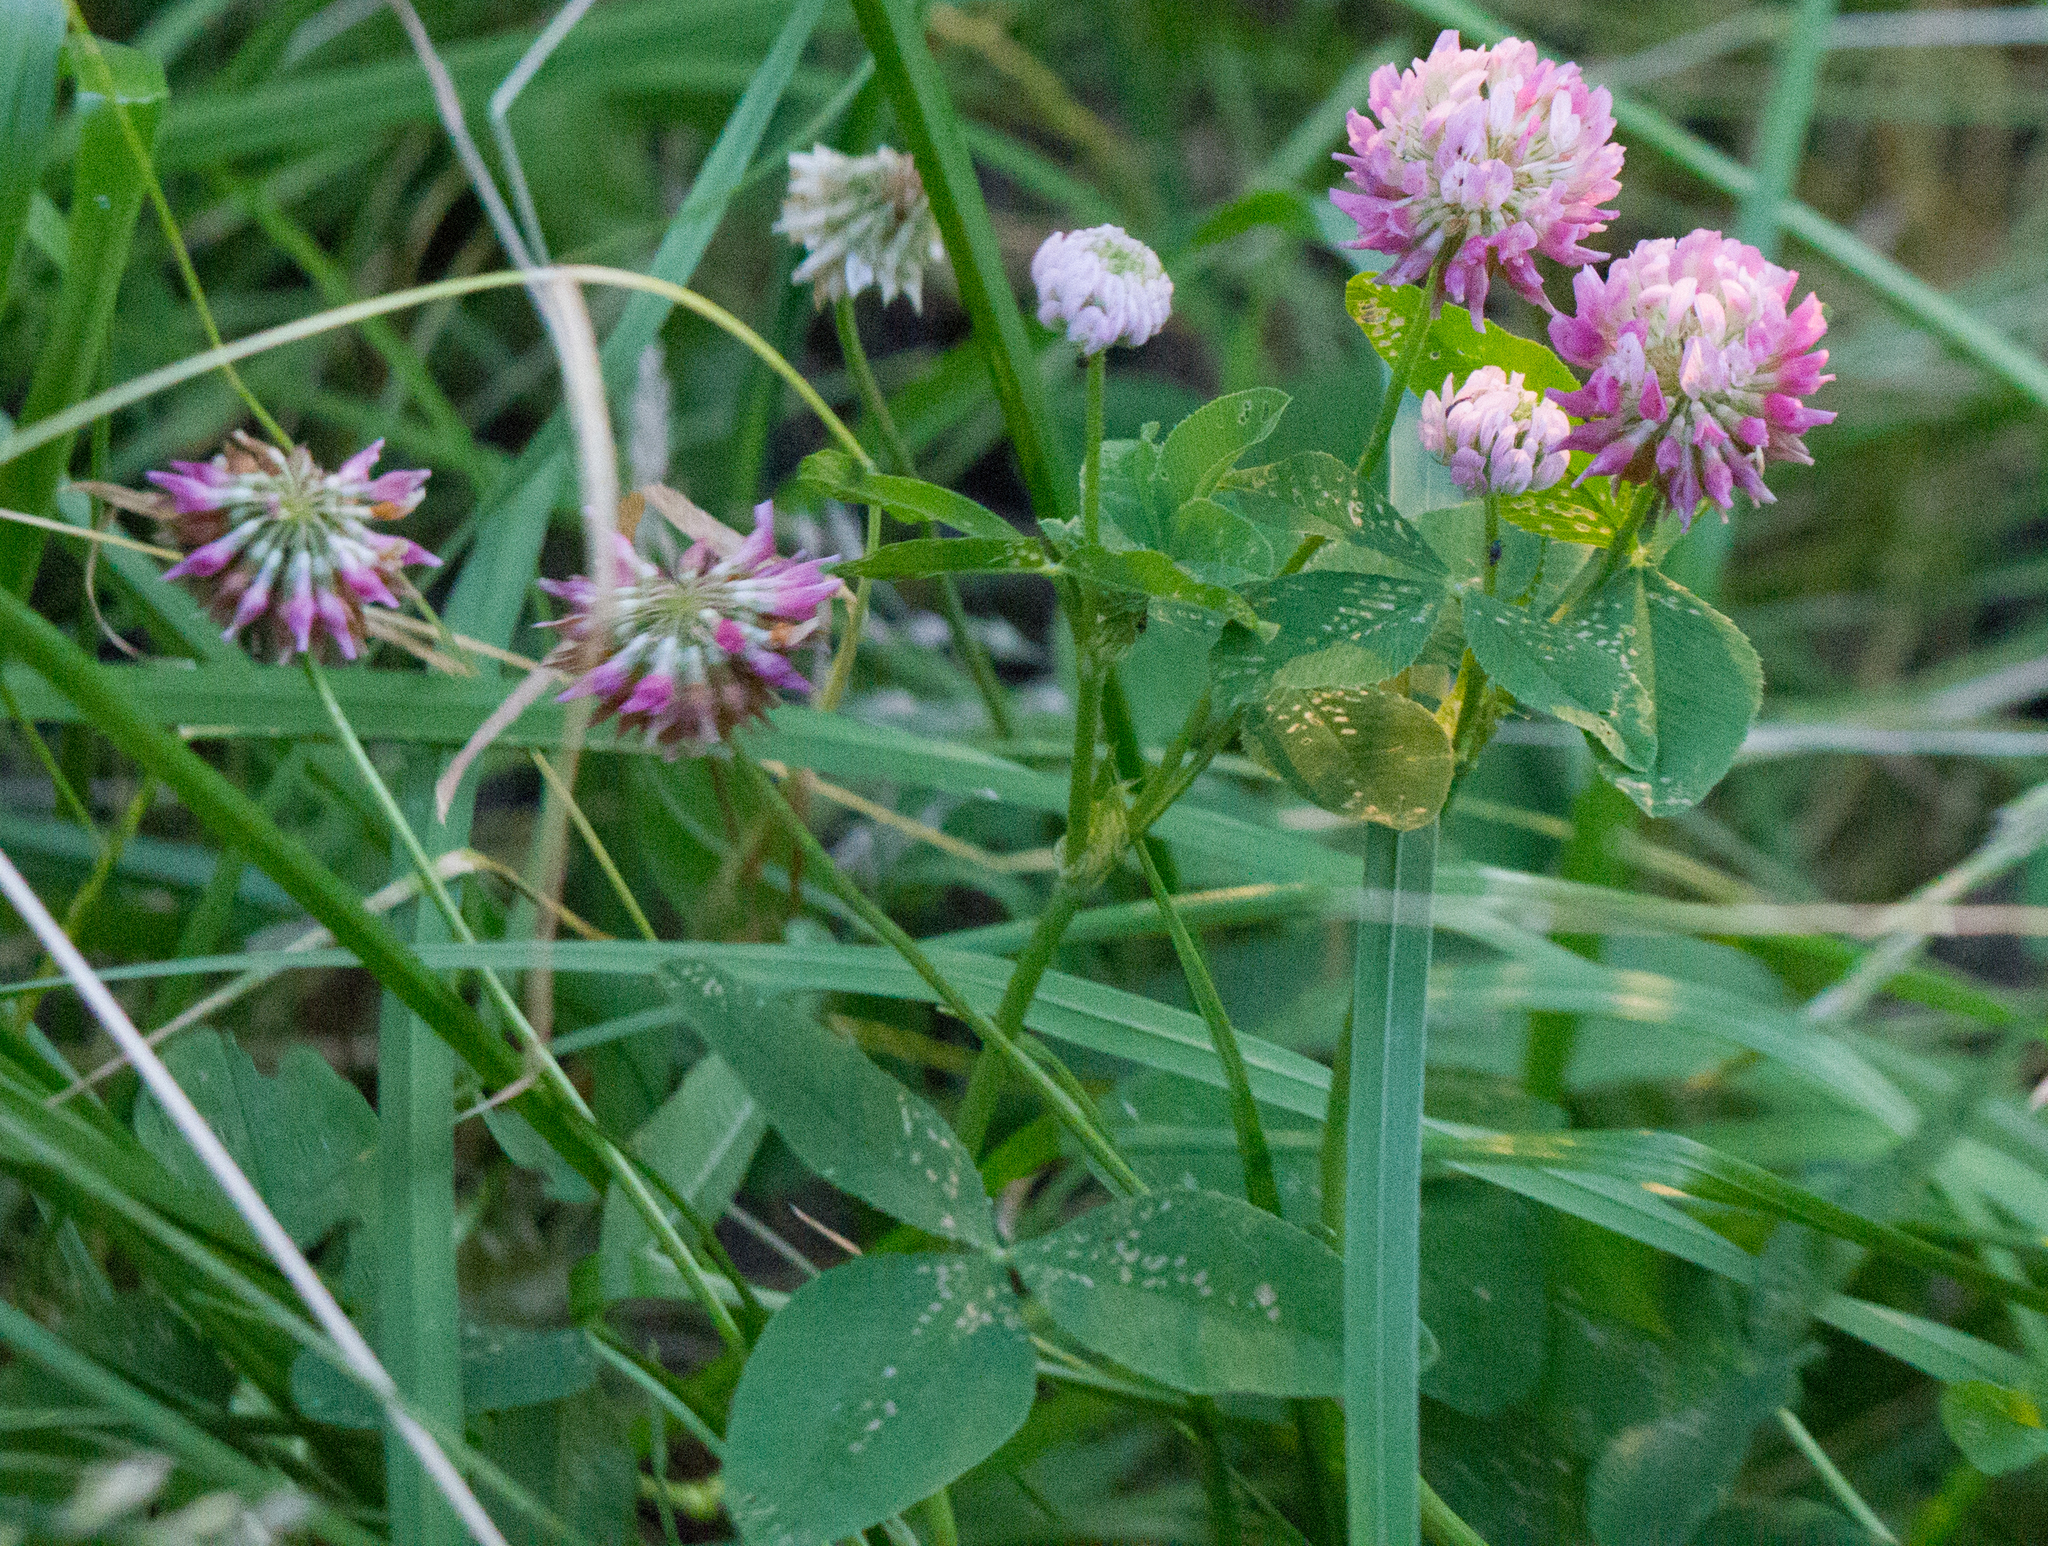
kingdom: Plantae
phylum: Tracheophyta
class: Magnoliopsida
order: Fabales
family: Fabaceae
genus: Trifolium
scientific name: Trifolium hybridum
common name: Alsike clover
